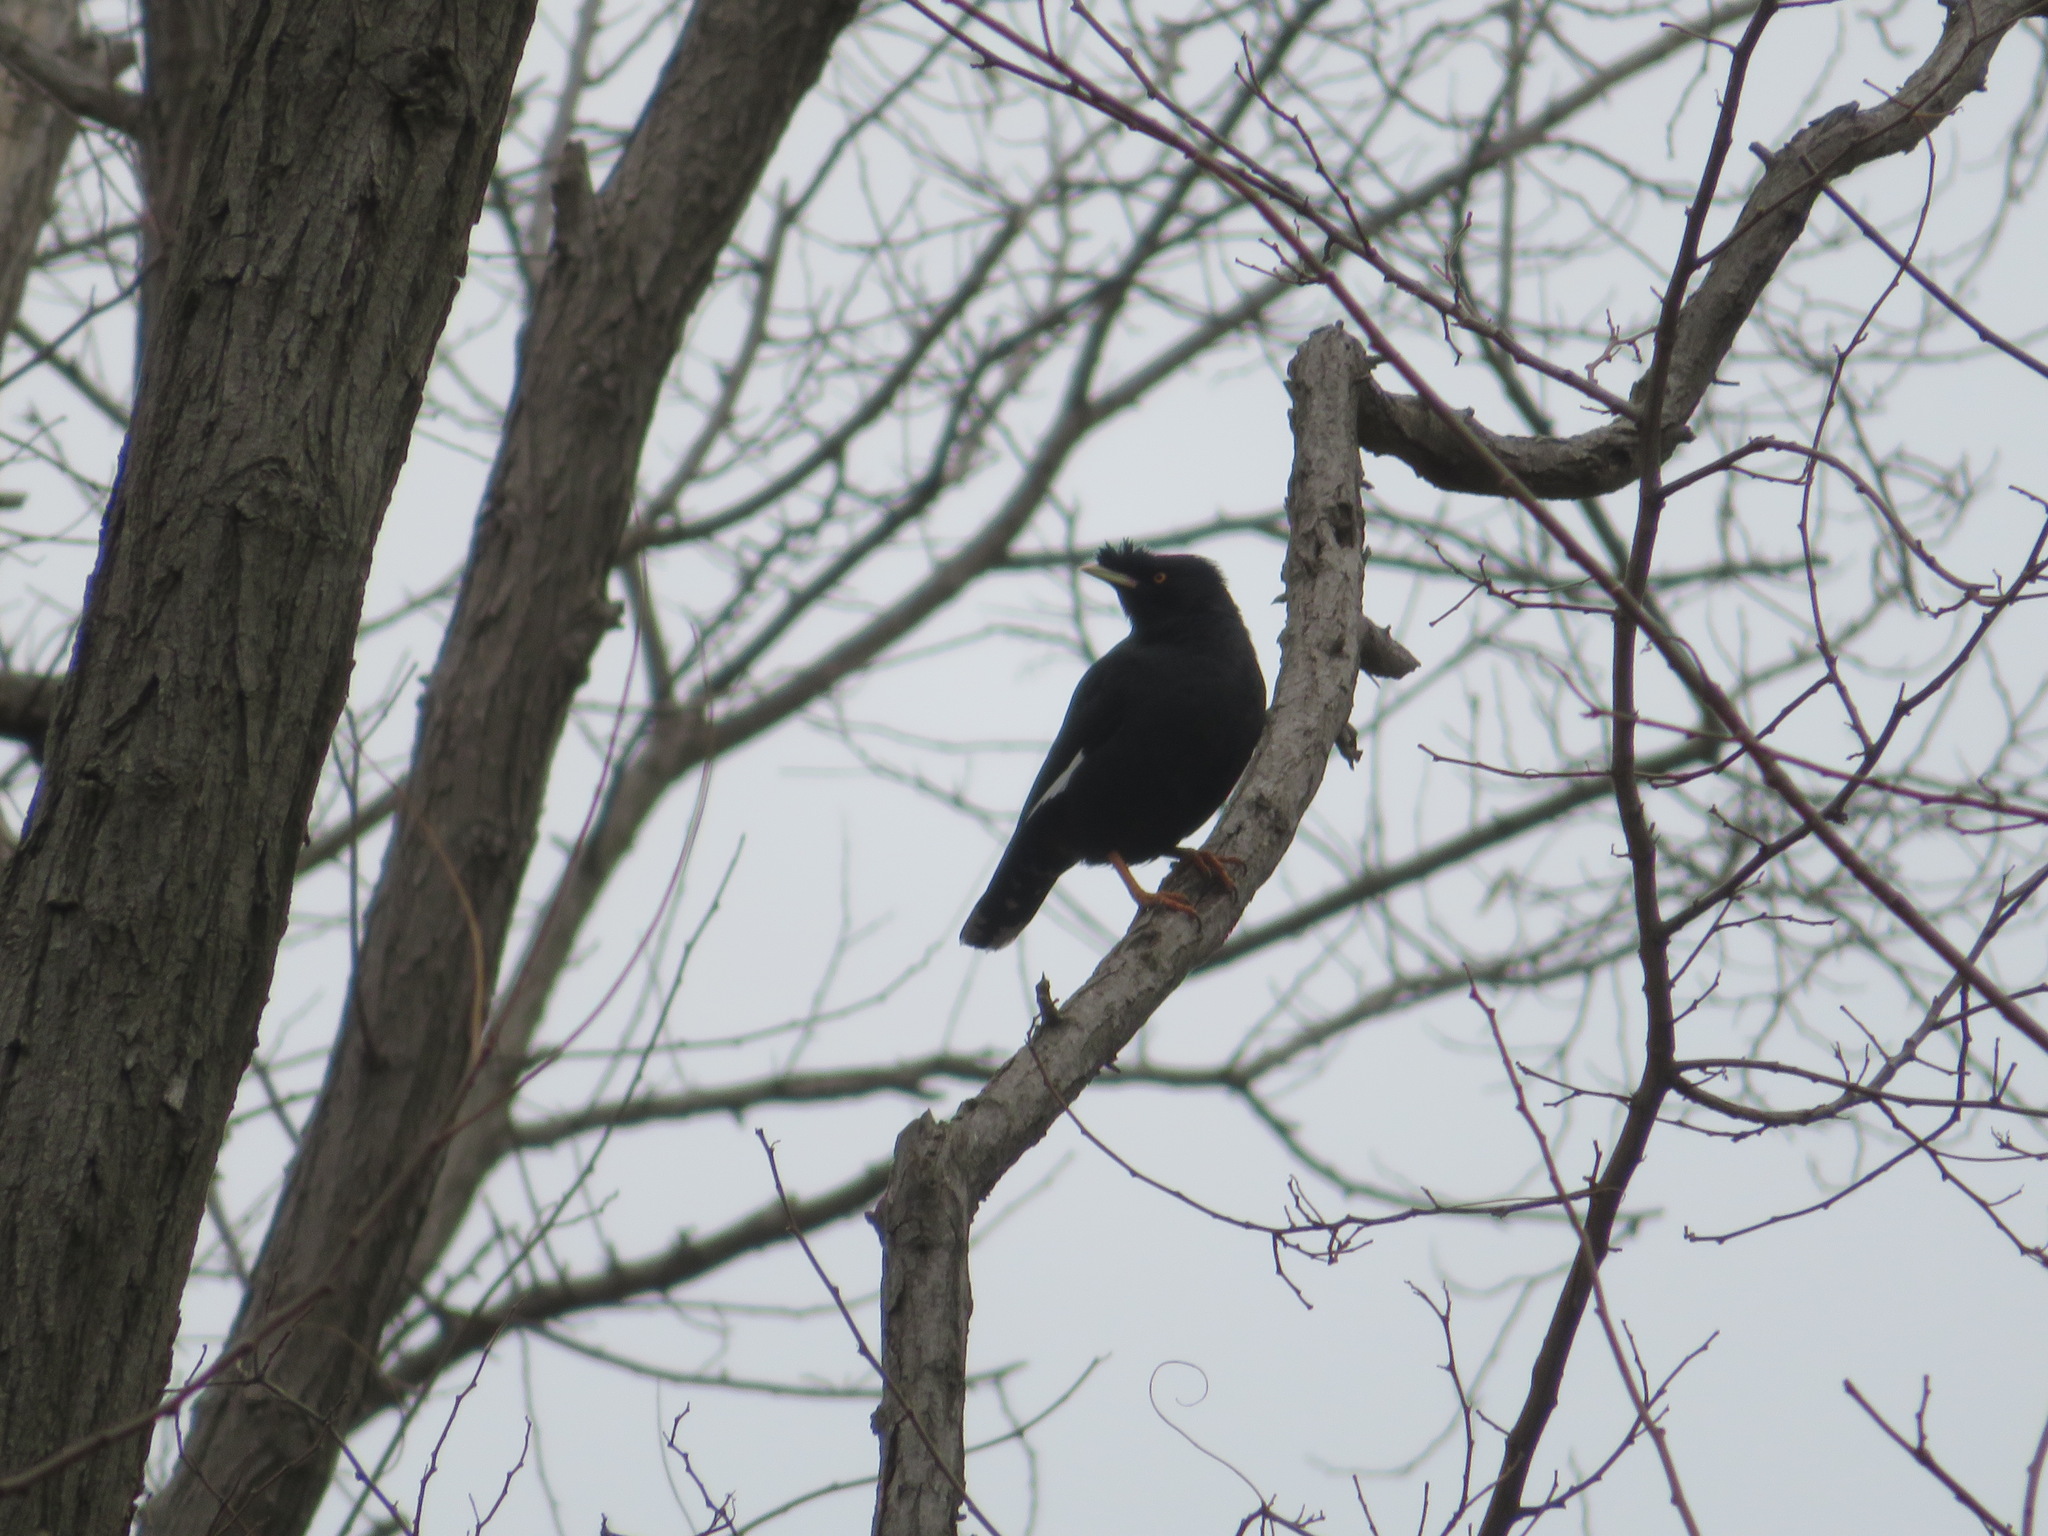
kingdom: Animalia
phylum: Chordata
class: Aves
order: Passeriformes
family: Sturnidae
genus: Acridotheres
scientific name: Acridotheres cristatellus
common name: Crested myna
